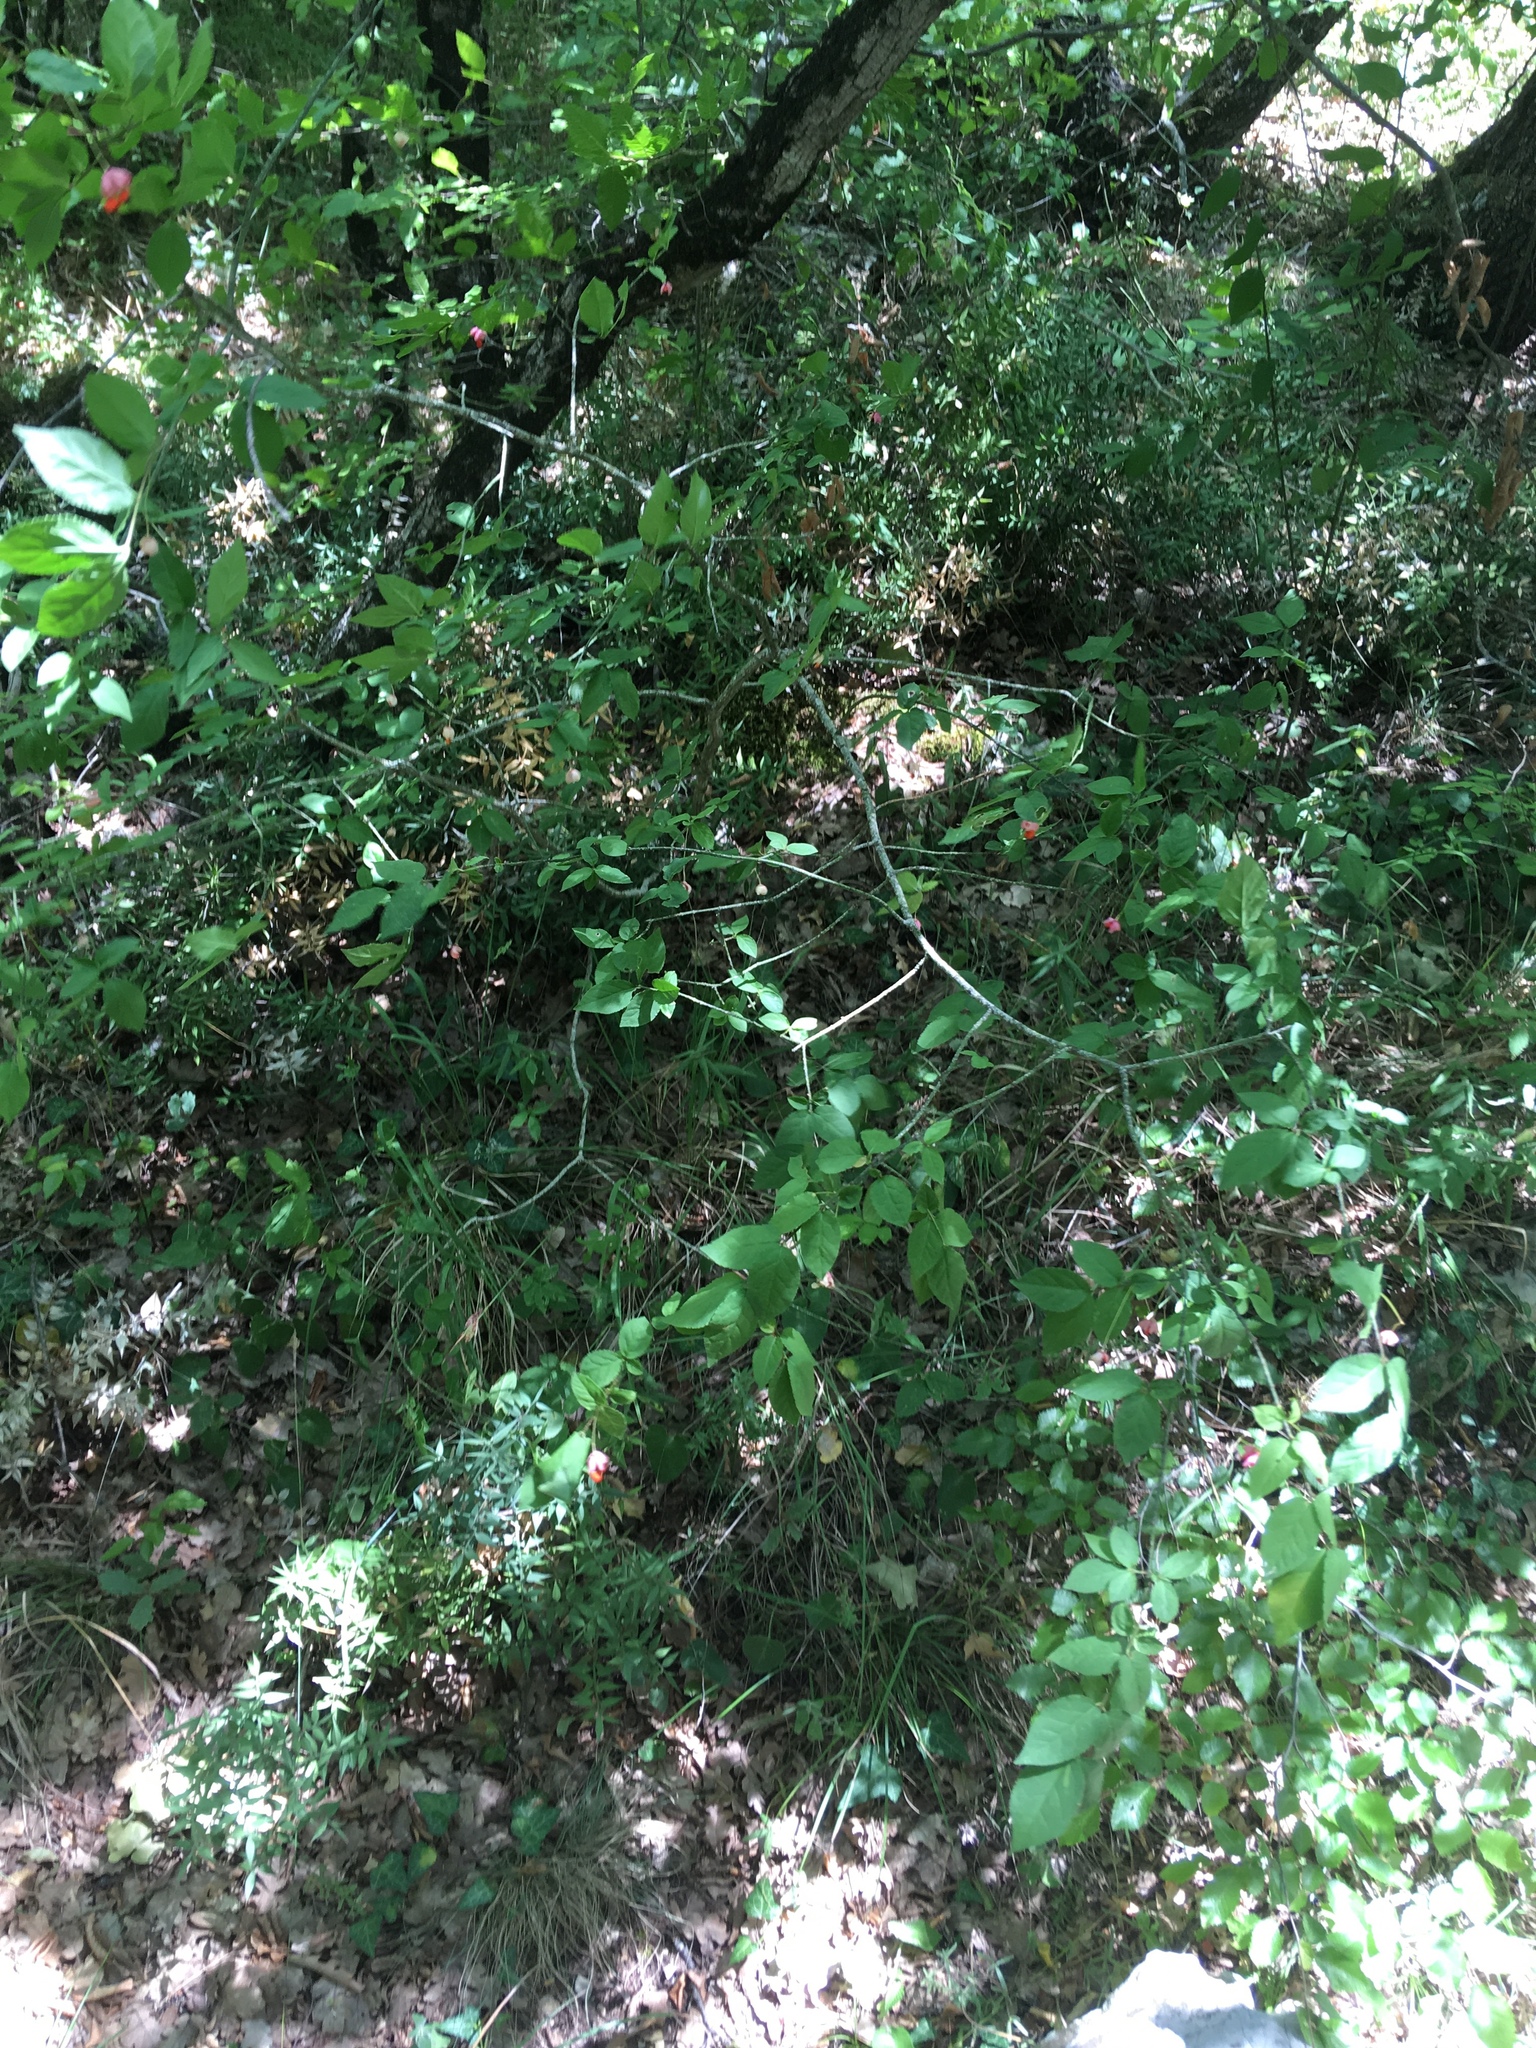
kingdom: Plantae
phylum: Tracheophyta
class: Magnoliopsida
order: Celastrales
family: Celastraceae
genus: Euonymus
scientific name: Euonymus verrucosus
